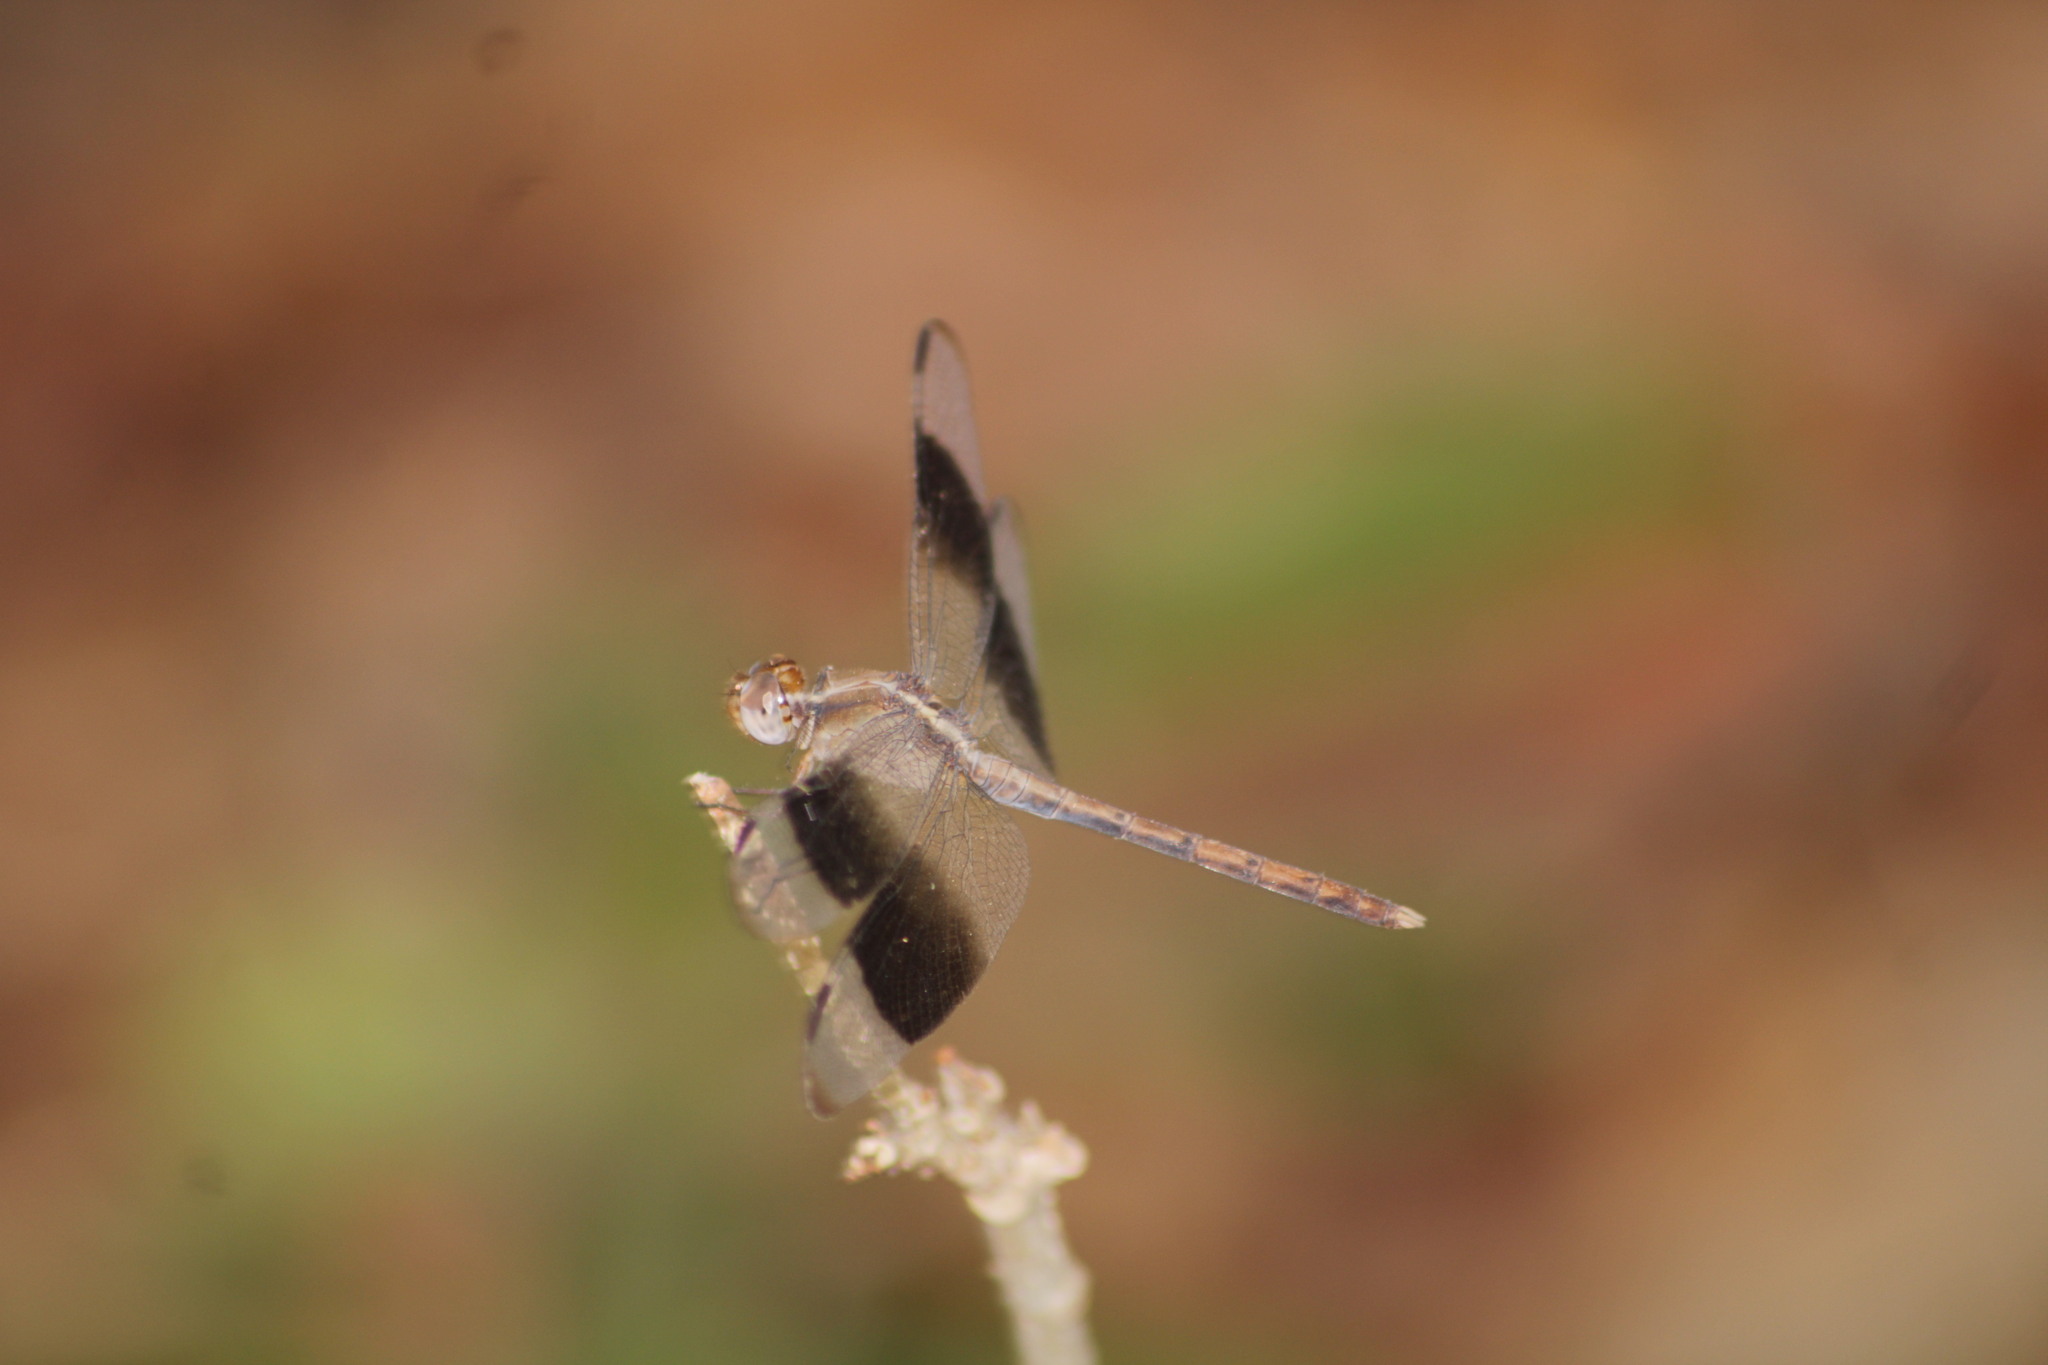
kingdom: Animalia
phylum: Arthropoda
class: Insecta
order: Odonata
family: Libellulidae
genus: Erythrodiplax
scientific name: Erythrodiplax funerea
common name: Black-winged dragonlet
